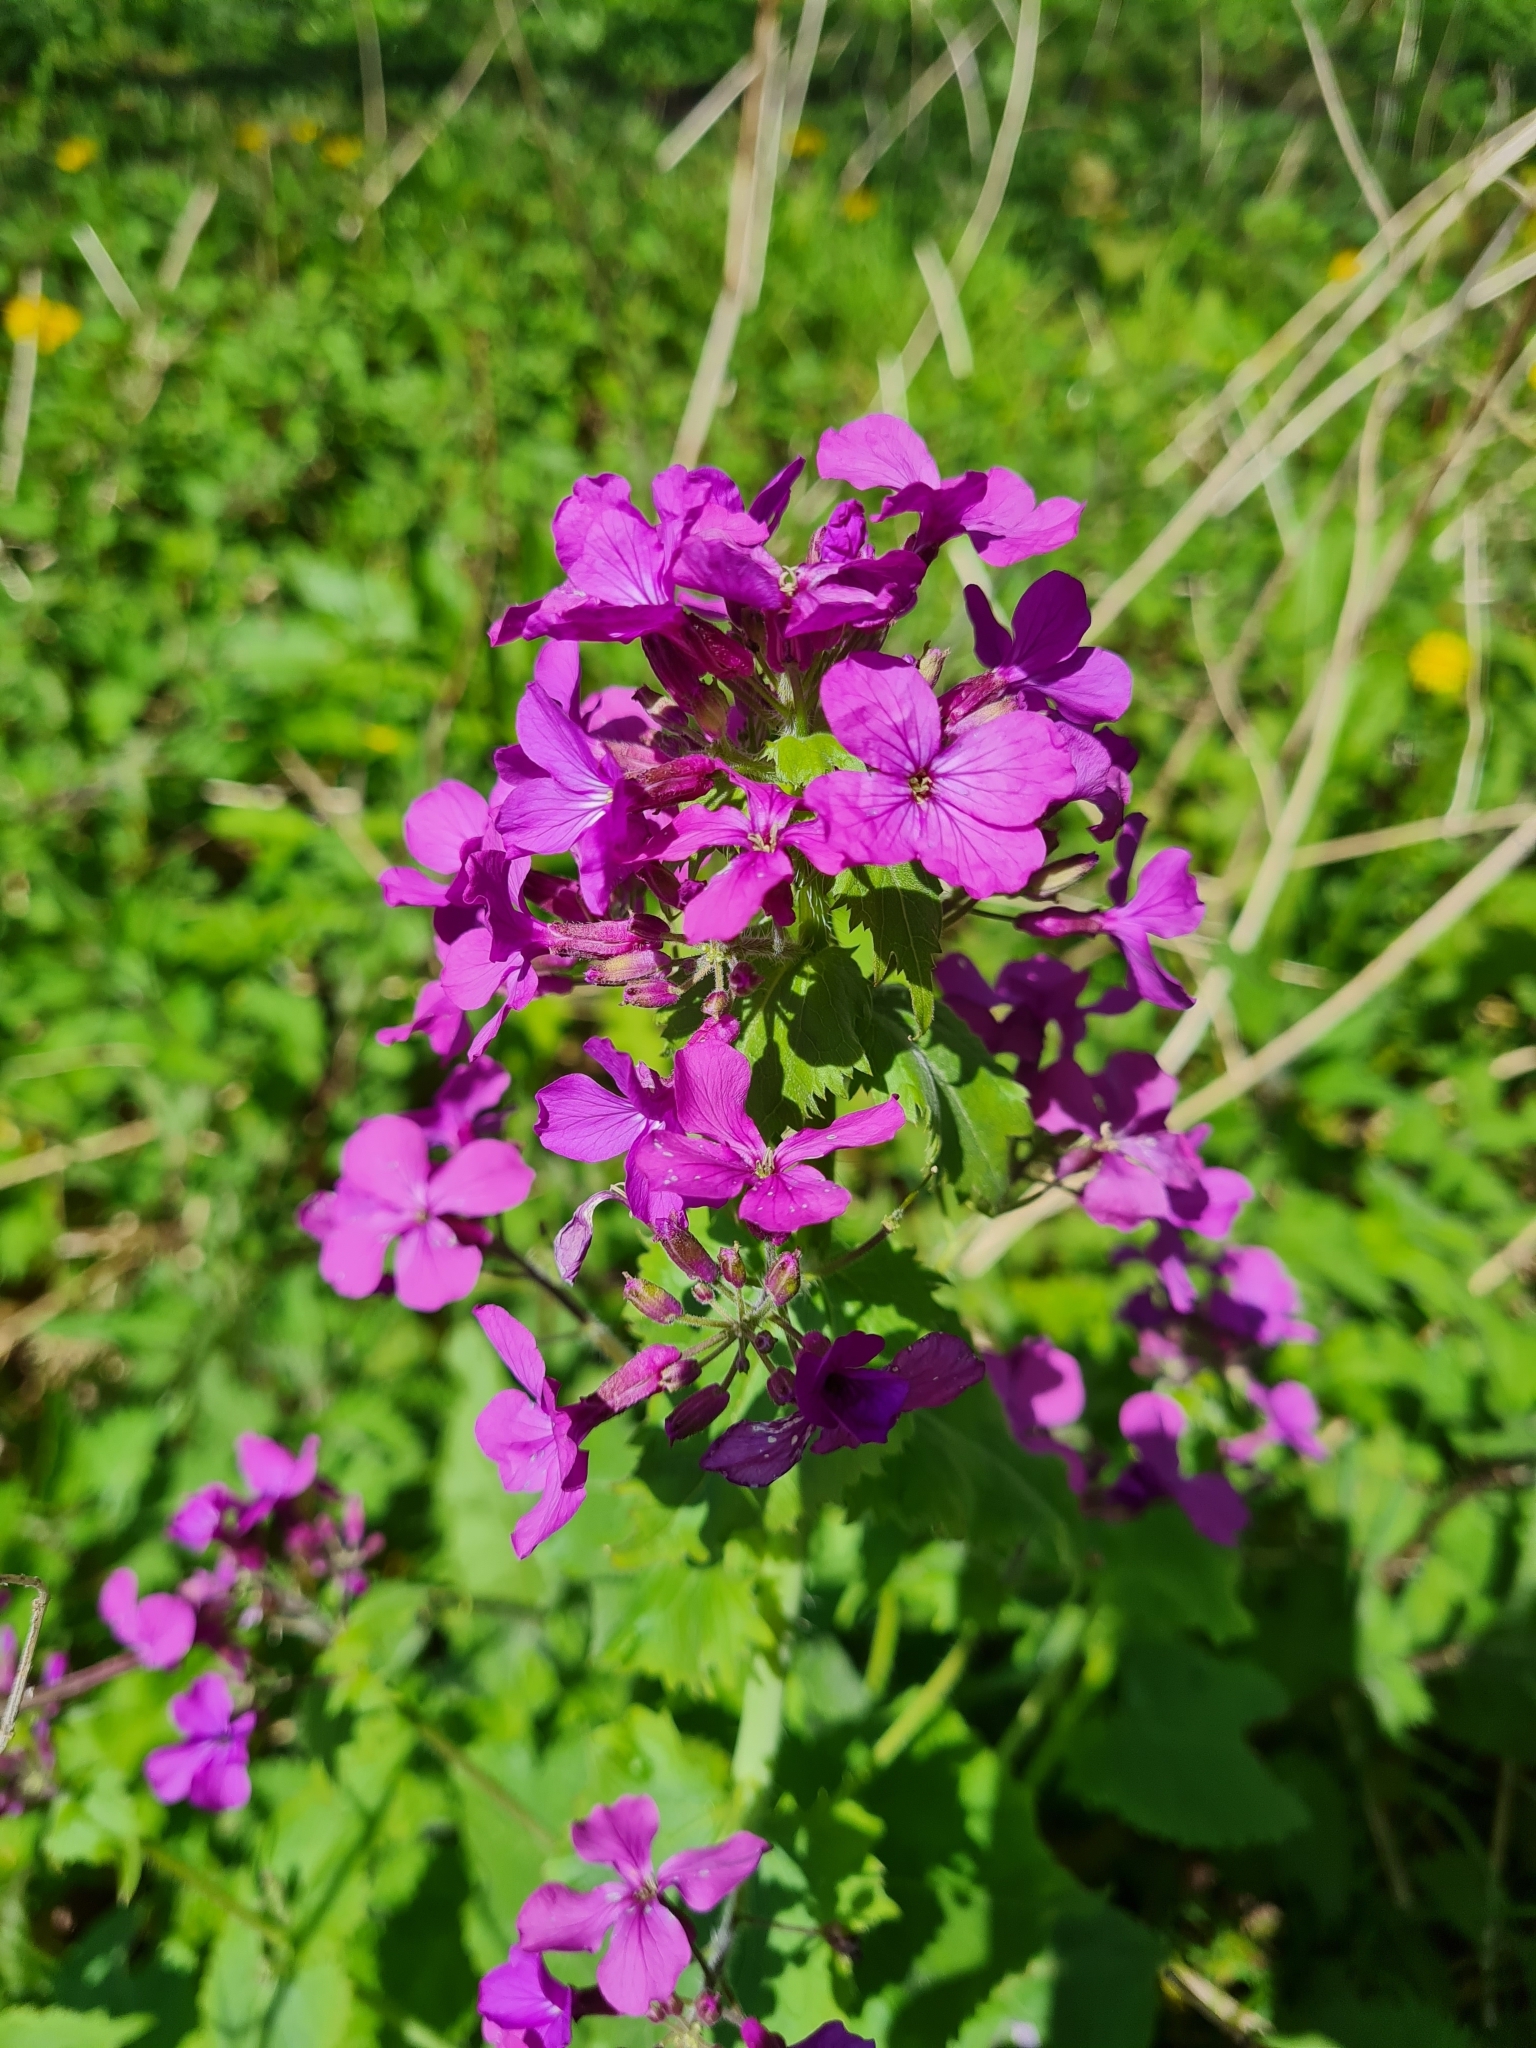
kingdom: Plantae
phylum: Tracheophyta
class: Magnoliopsida
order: Brassicales
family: Brassicaceae
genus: Lunaria
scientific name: Lunaria annua
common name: Honesty
